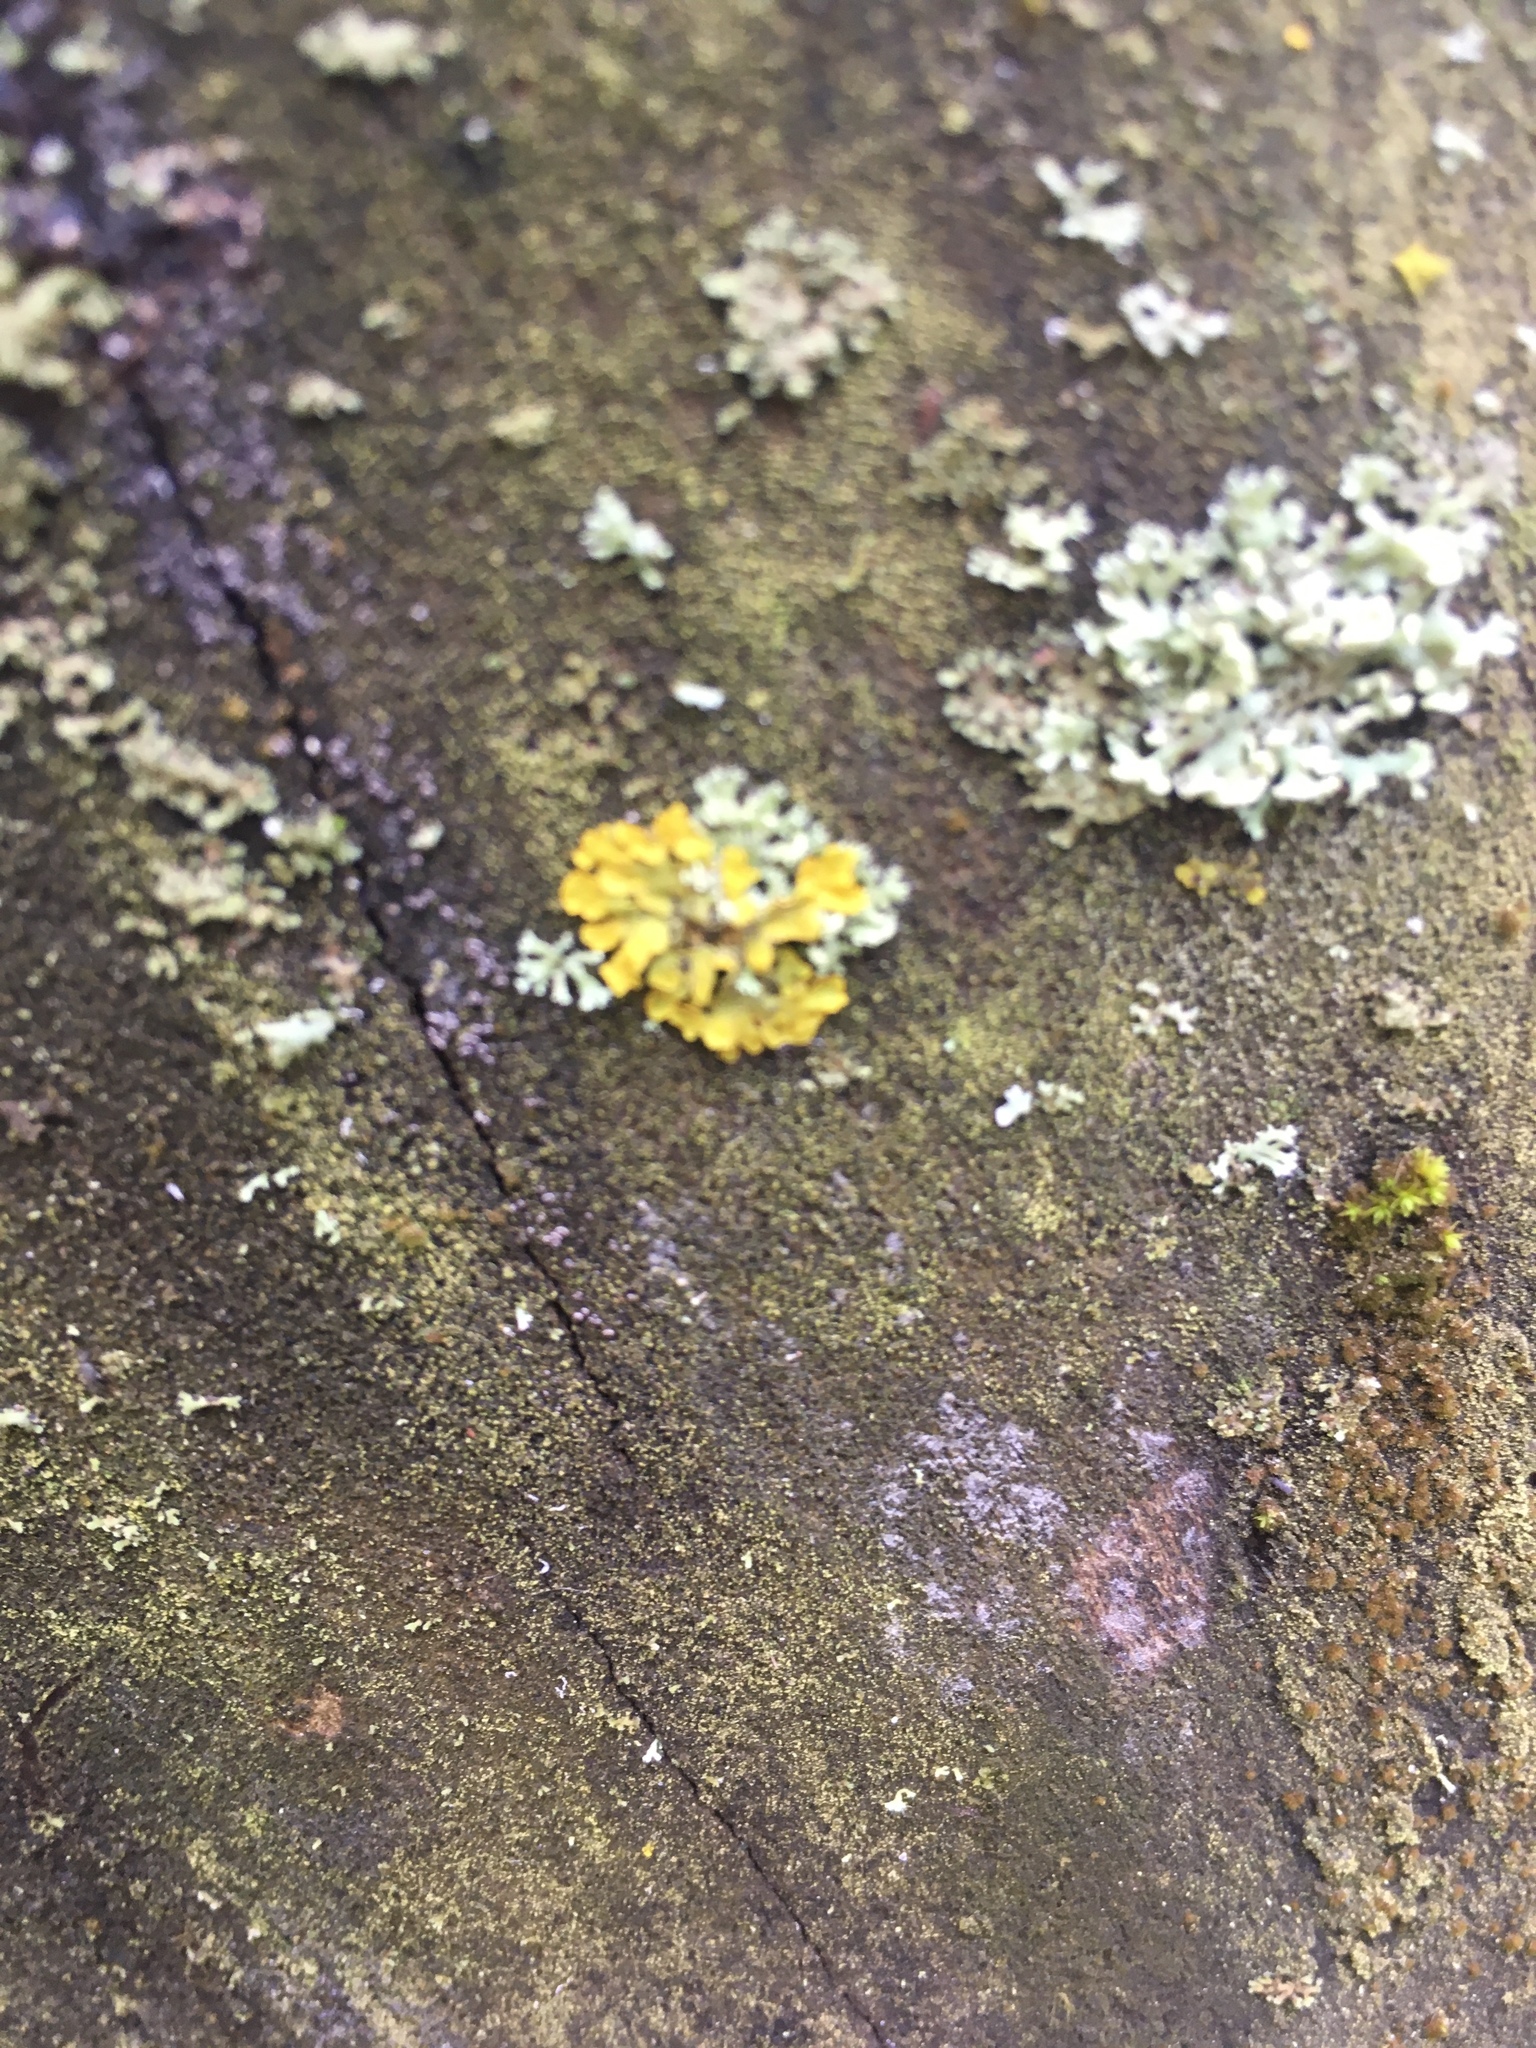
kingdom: Fungi
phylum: Ascomycota
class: Lecanoromycetes
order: Teloschistales
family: Teloschistaceae
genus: Xanthoria
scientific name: Xanthoria parietina
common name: Common orange lichen
